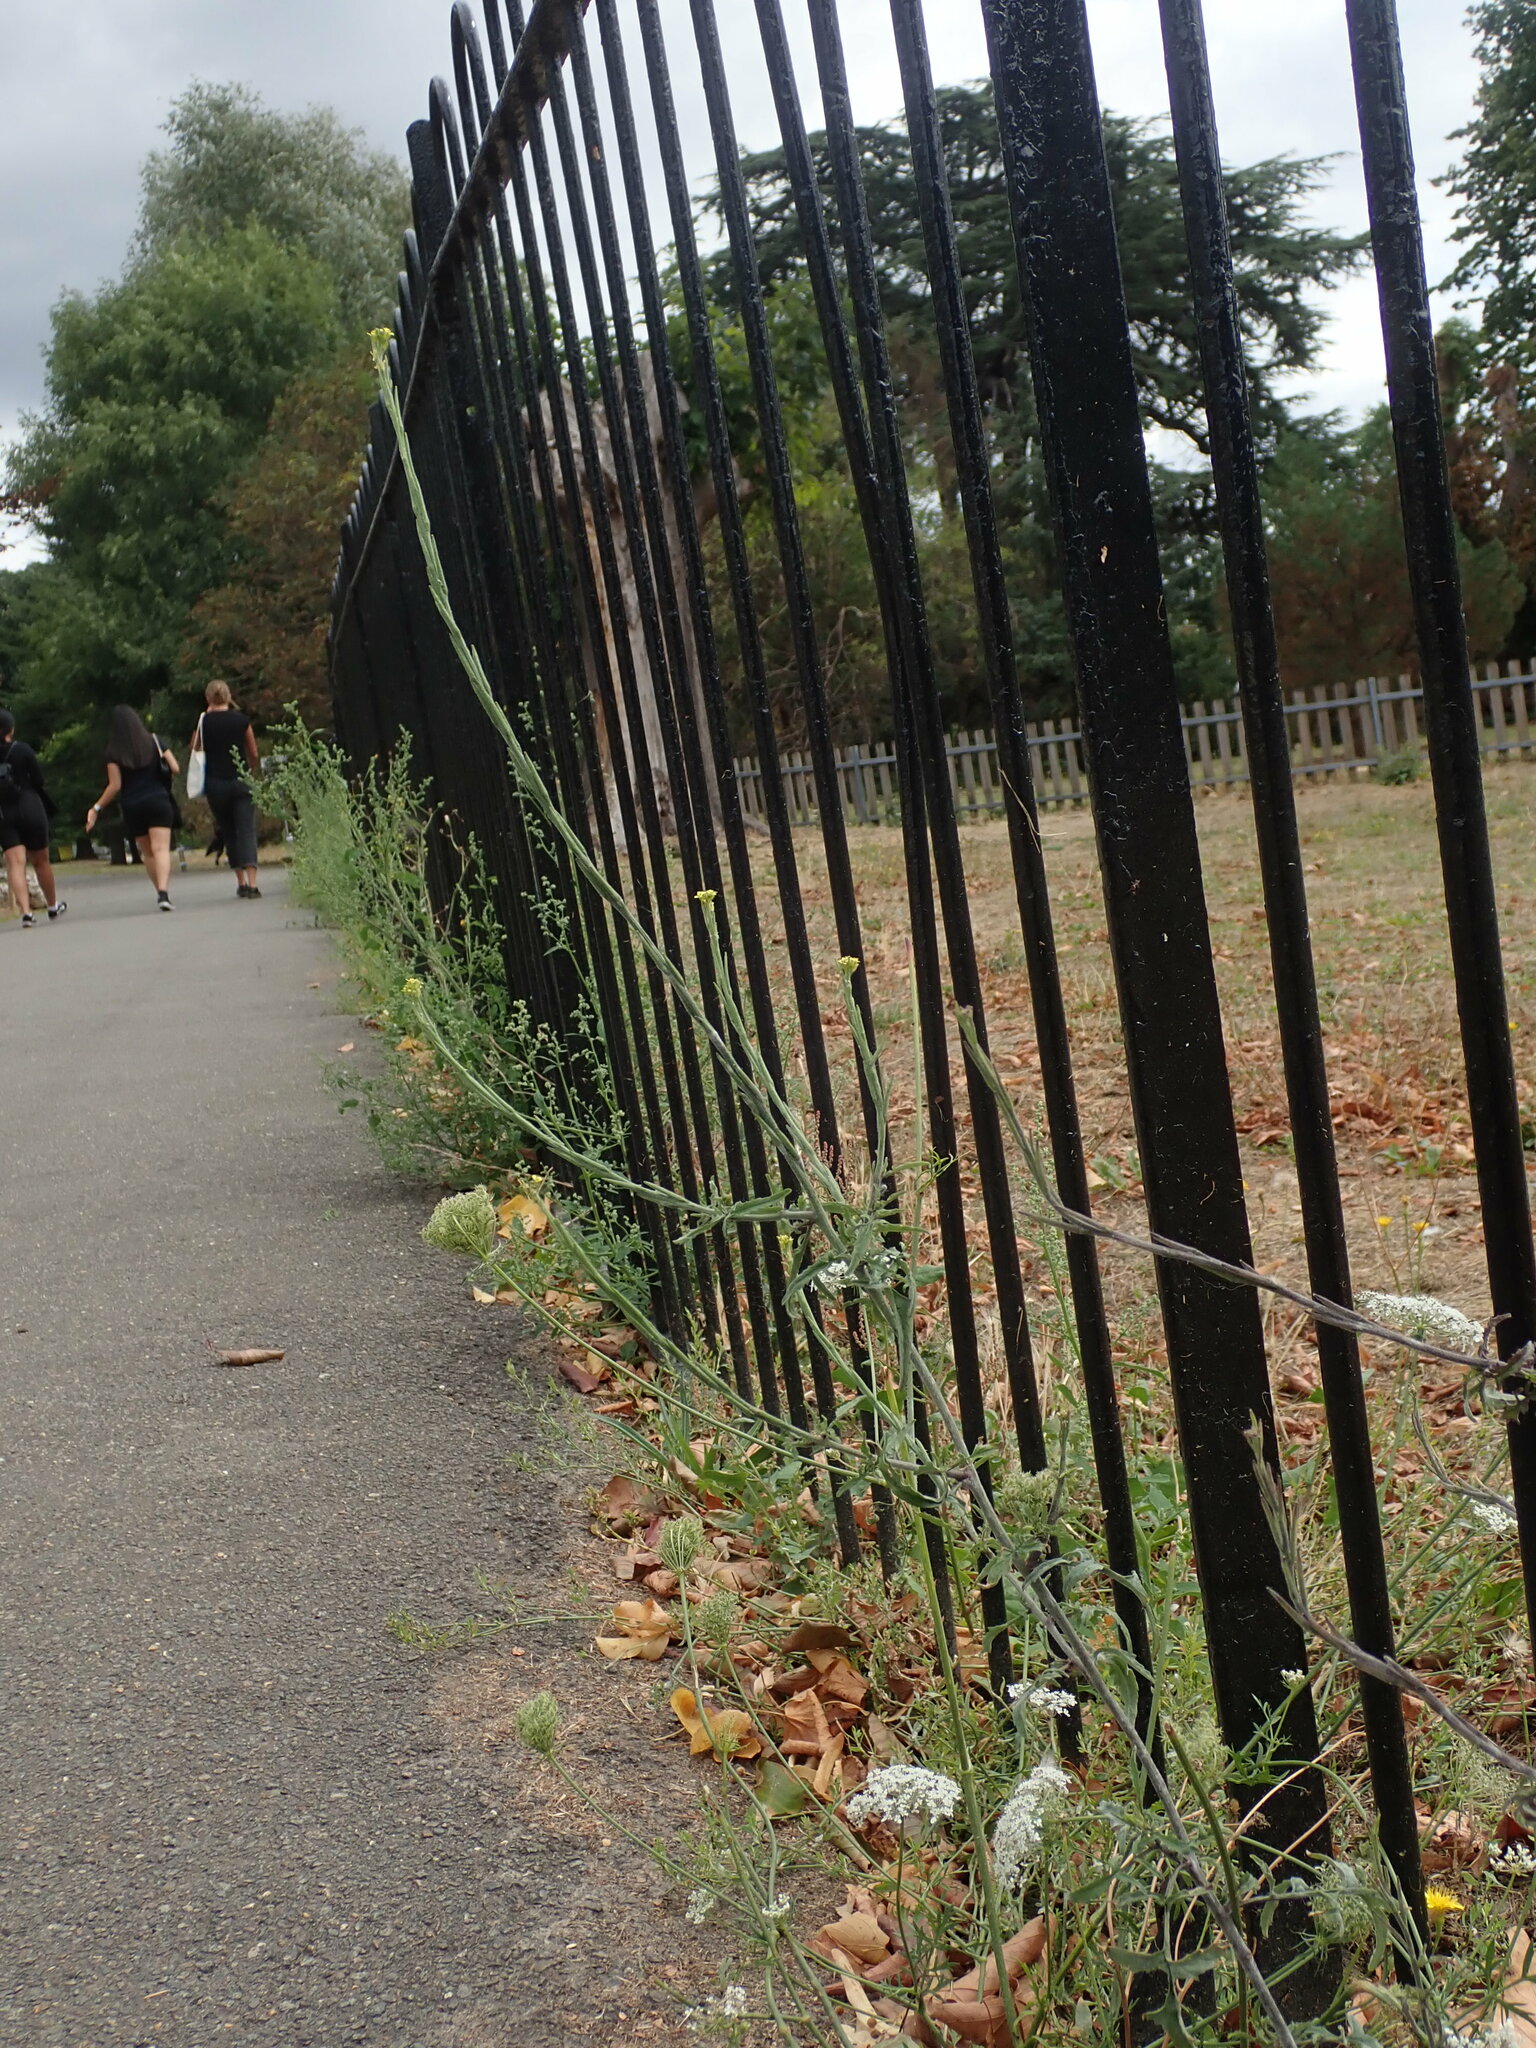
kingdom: Plantae
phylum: Tracheophyta
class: Magnoliopsida
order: Brassicales
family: Brassicaceae
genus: Sisymbrium
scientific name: Sisymbrium officinale
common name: Hedge mustard
